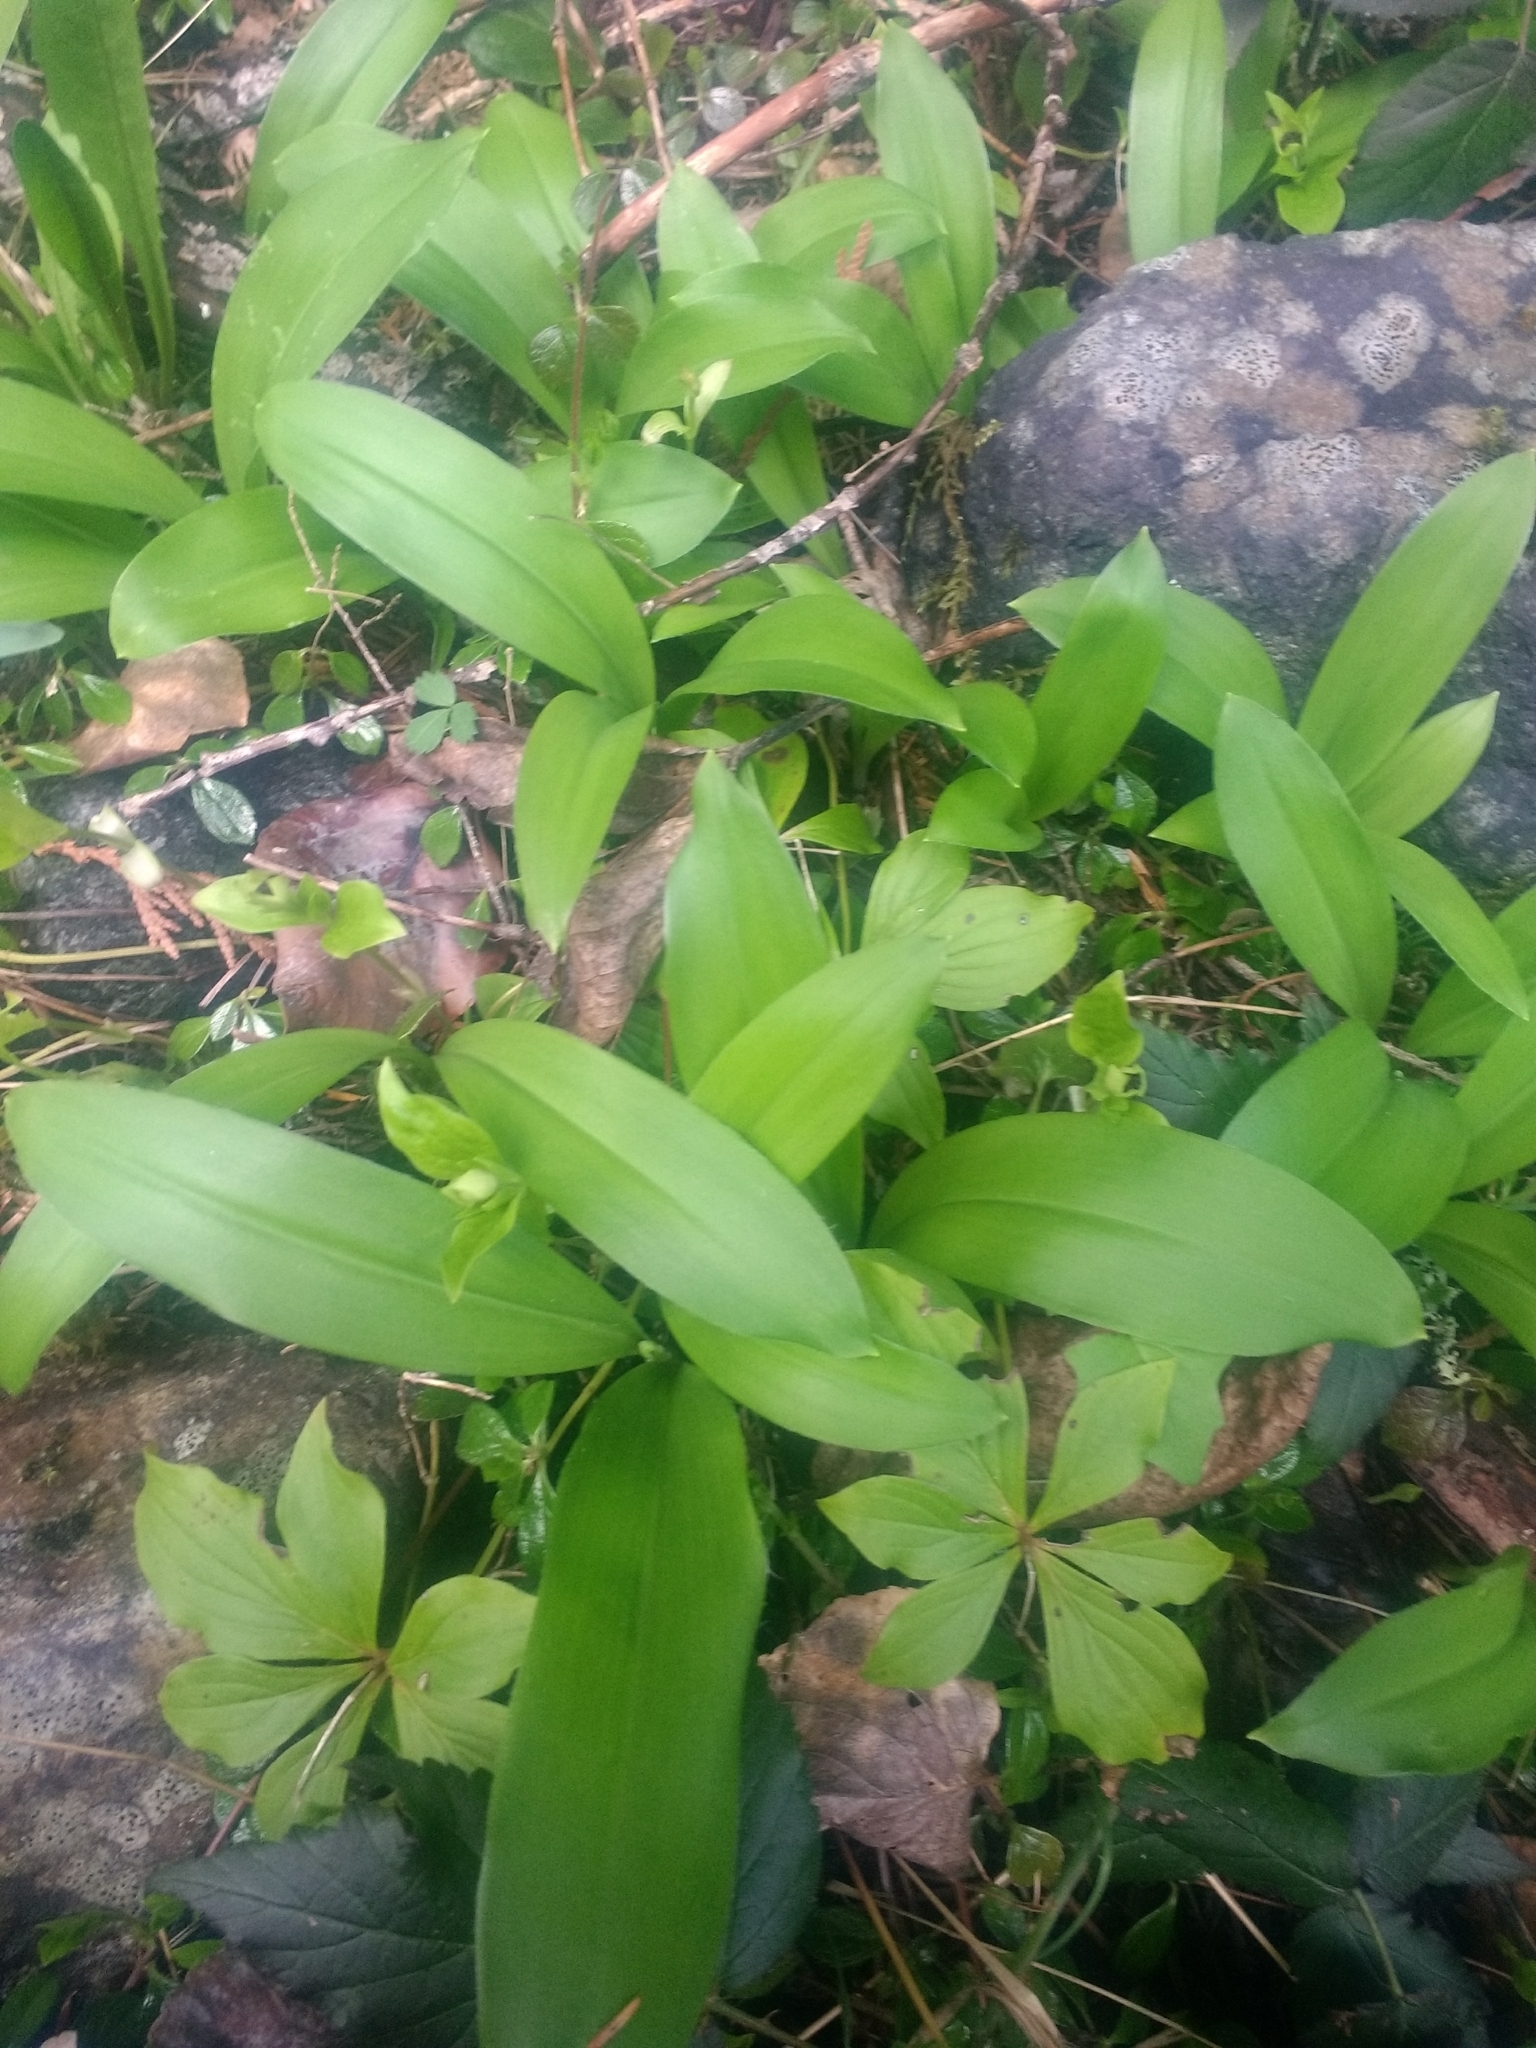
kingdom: Plantae
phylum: Tracheophyta
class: Liliopsida
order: Liliales
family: Liliaceae
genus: Clintonia
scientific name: Clintonia uniflora
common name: Queen's cup
